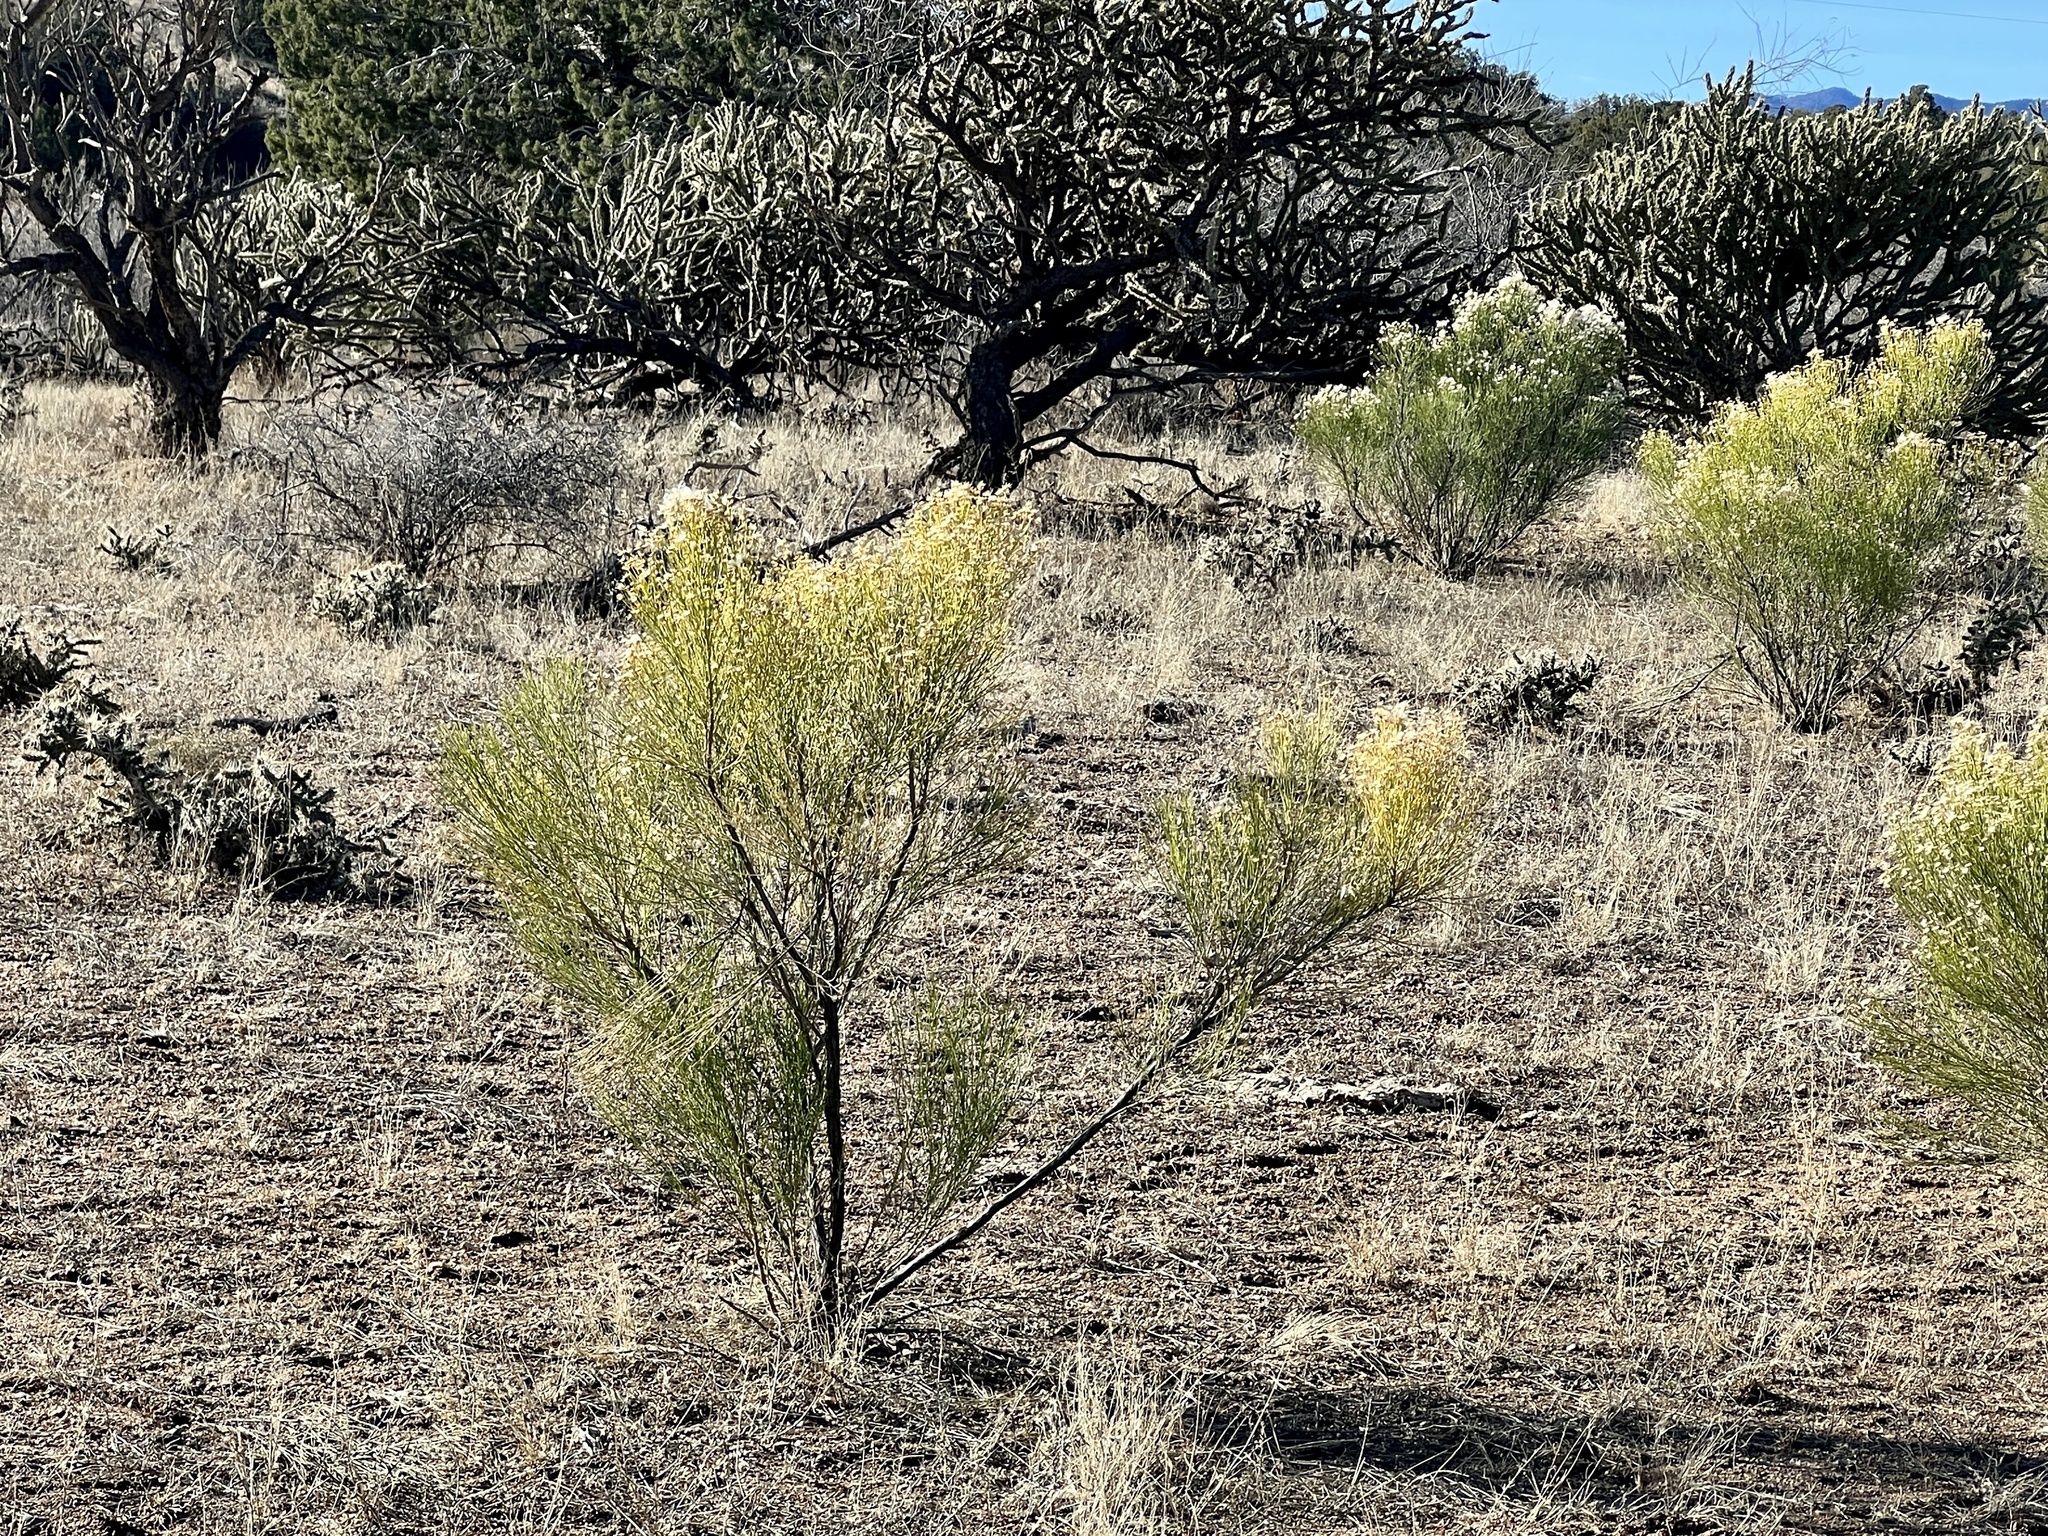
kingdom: Plantae
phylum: Tracheophyta
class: Magnoliopsida
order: Asterales
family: Asteraceae
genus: Baccharis
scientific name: Baccharis sarothroides
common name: Desert-broom
